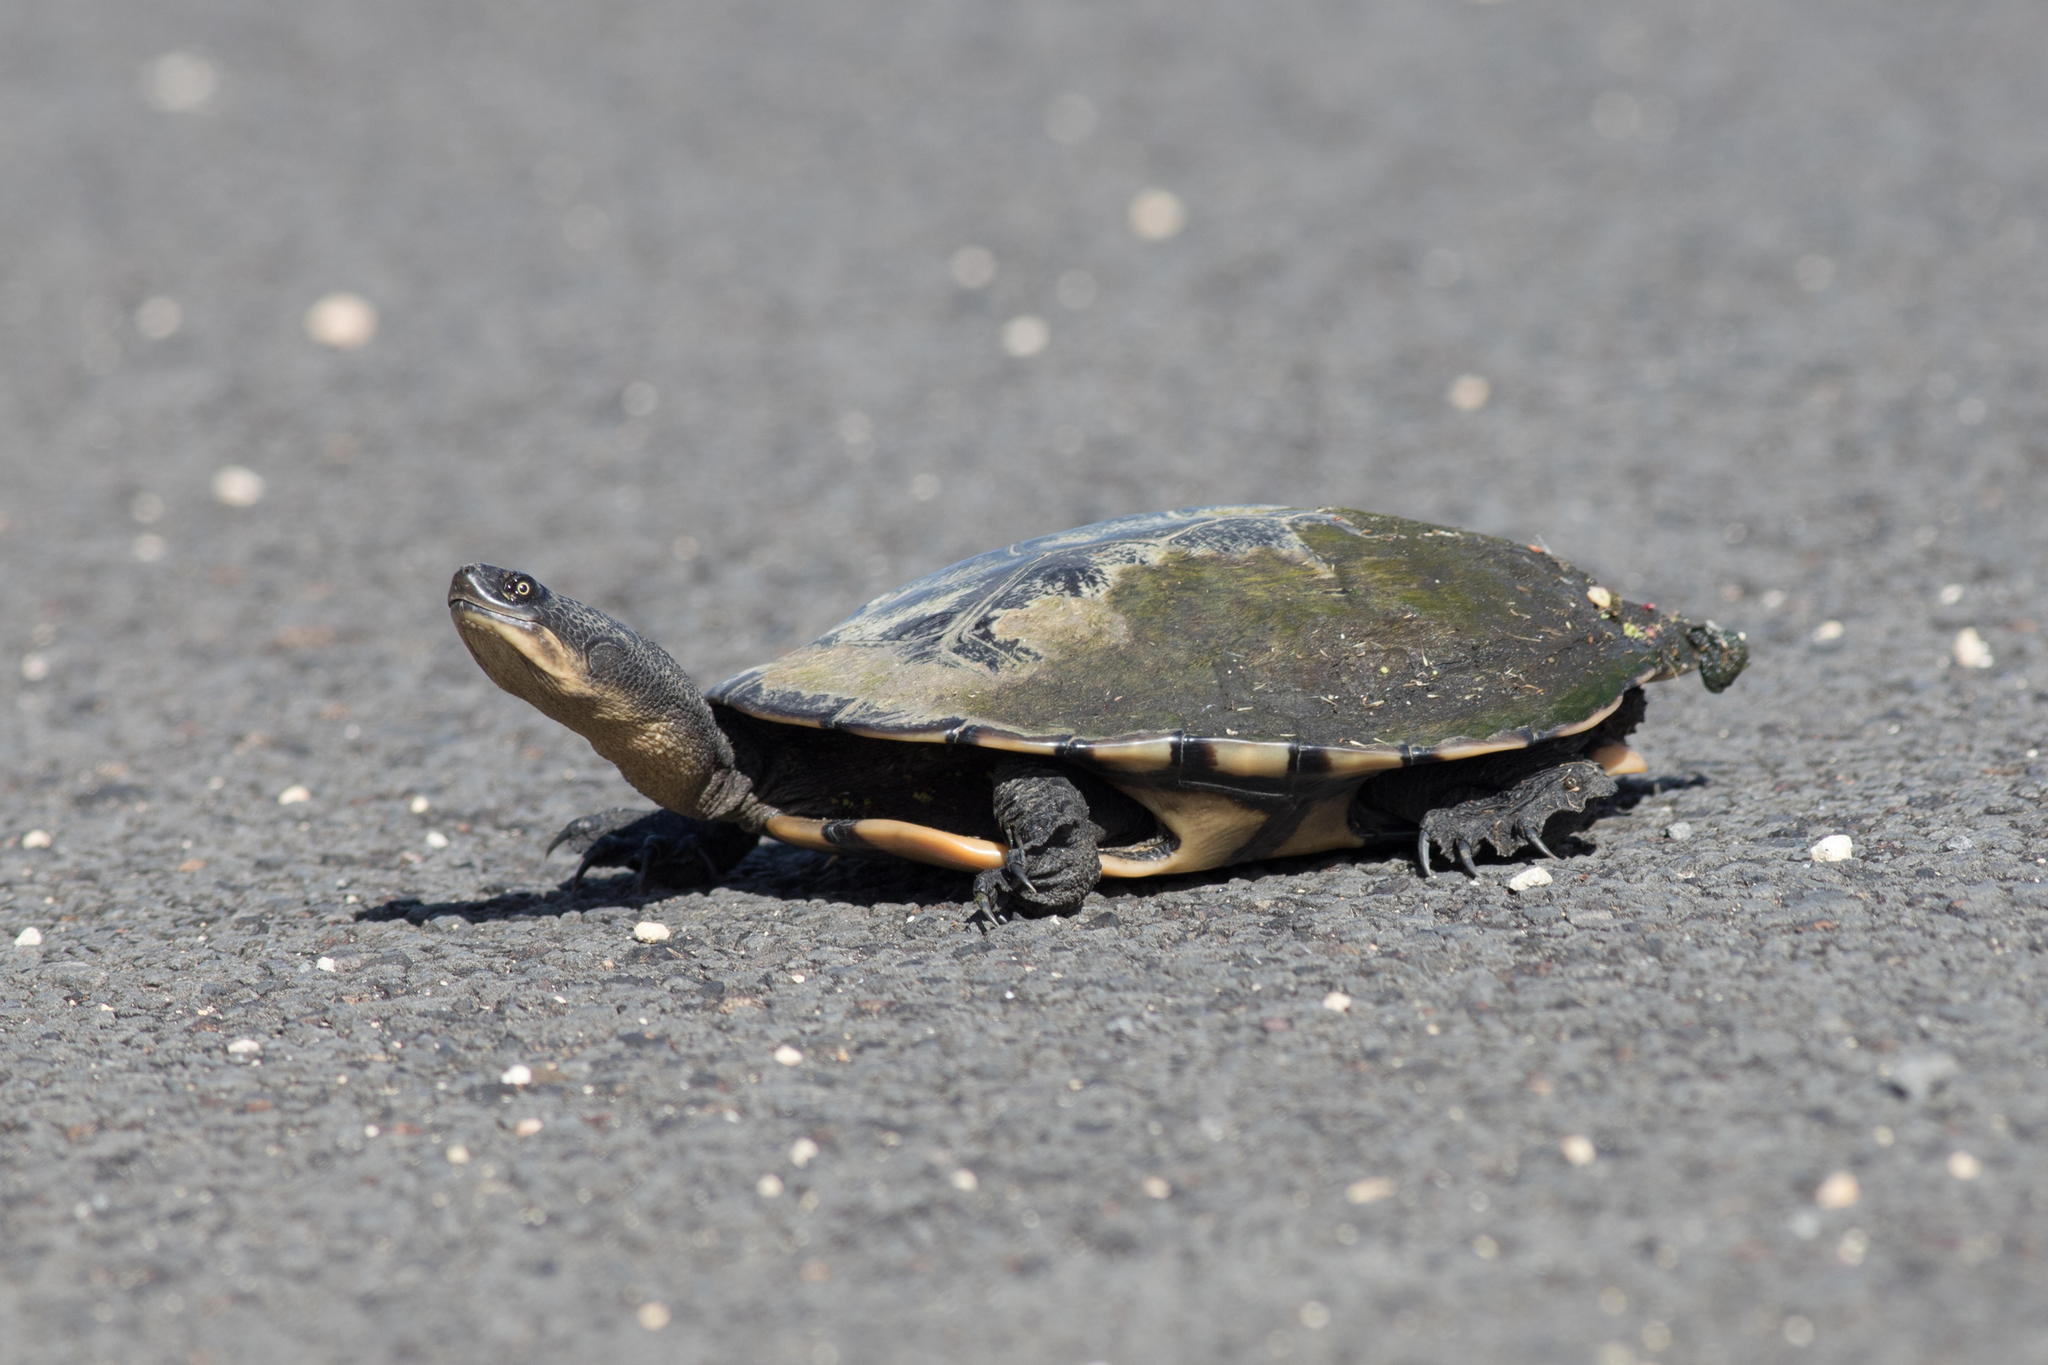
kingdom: Animalia
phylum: Chordata
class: Testudines
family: Chelidae
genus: Chelodina
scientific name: Chelodina longicollis
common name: Eastern snake-necked turtle
